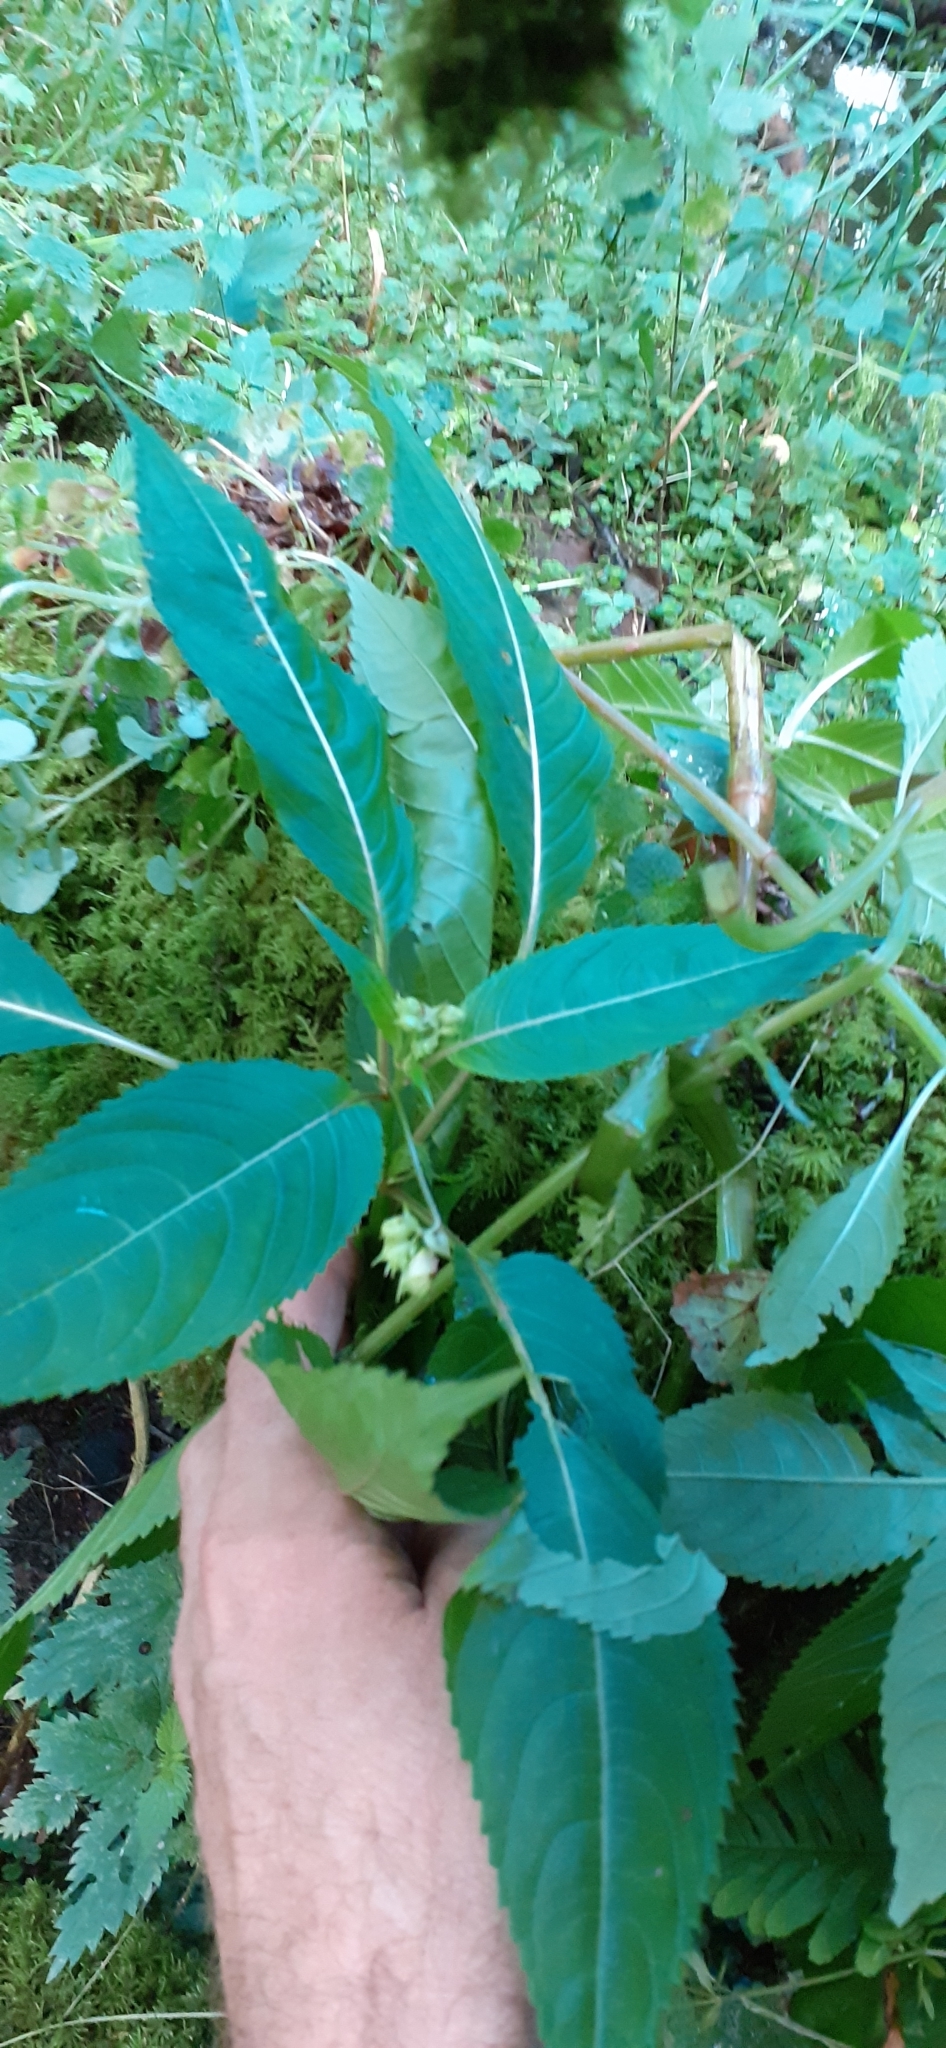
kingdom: Plantae
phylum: Tracheophyta
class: Magnoliopsida
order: Ericales
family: Balsaminaceae
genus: Impatiens
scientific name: Impatiens glandulifera
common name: Himalayan balsam
